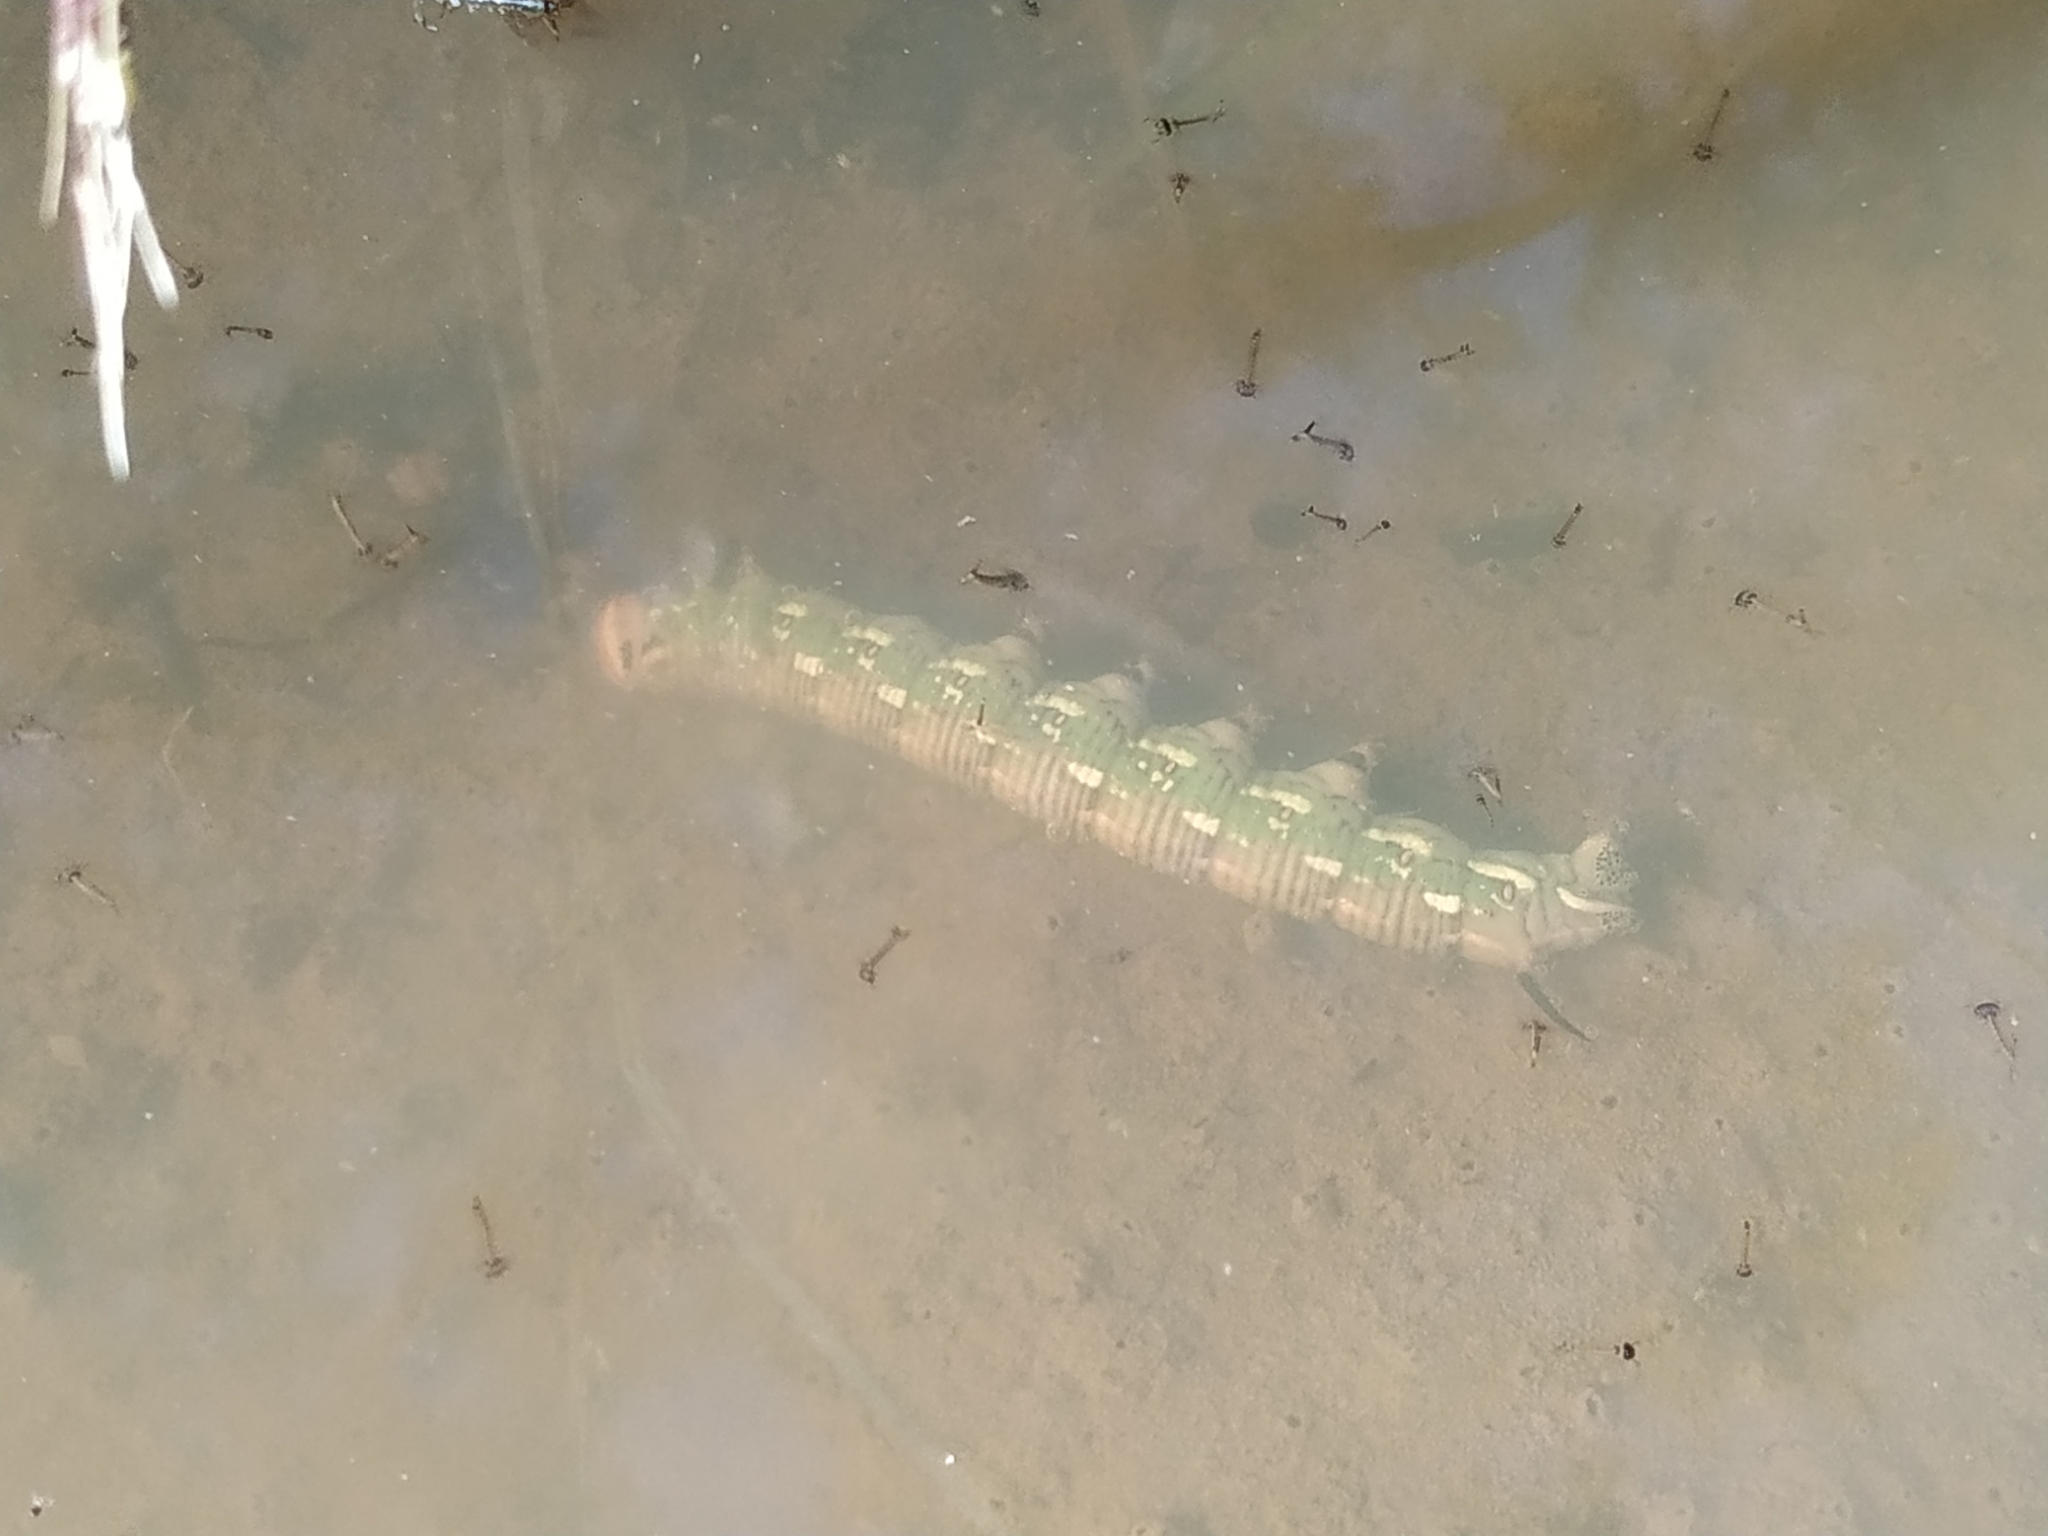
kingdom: Animalia
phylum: Arthropoda
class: Insecta
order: Lepidoptera
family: Sphingidae
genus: Sphinx
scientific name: Sphinx pinastri
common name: Pine hawk-moth
